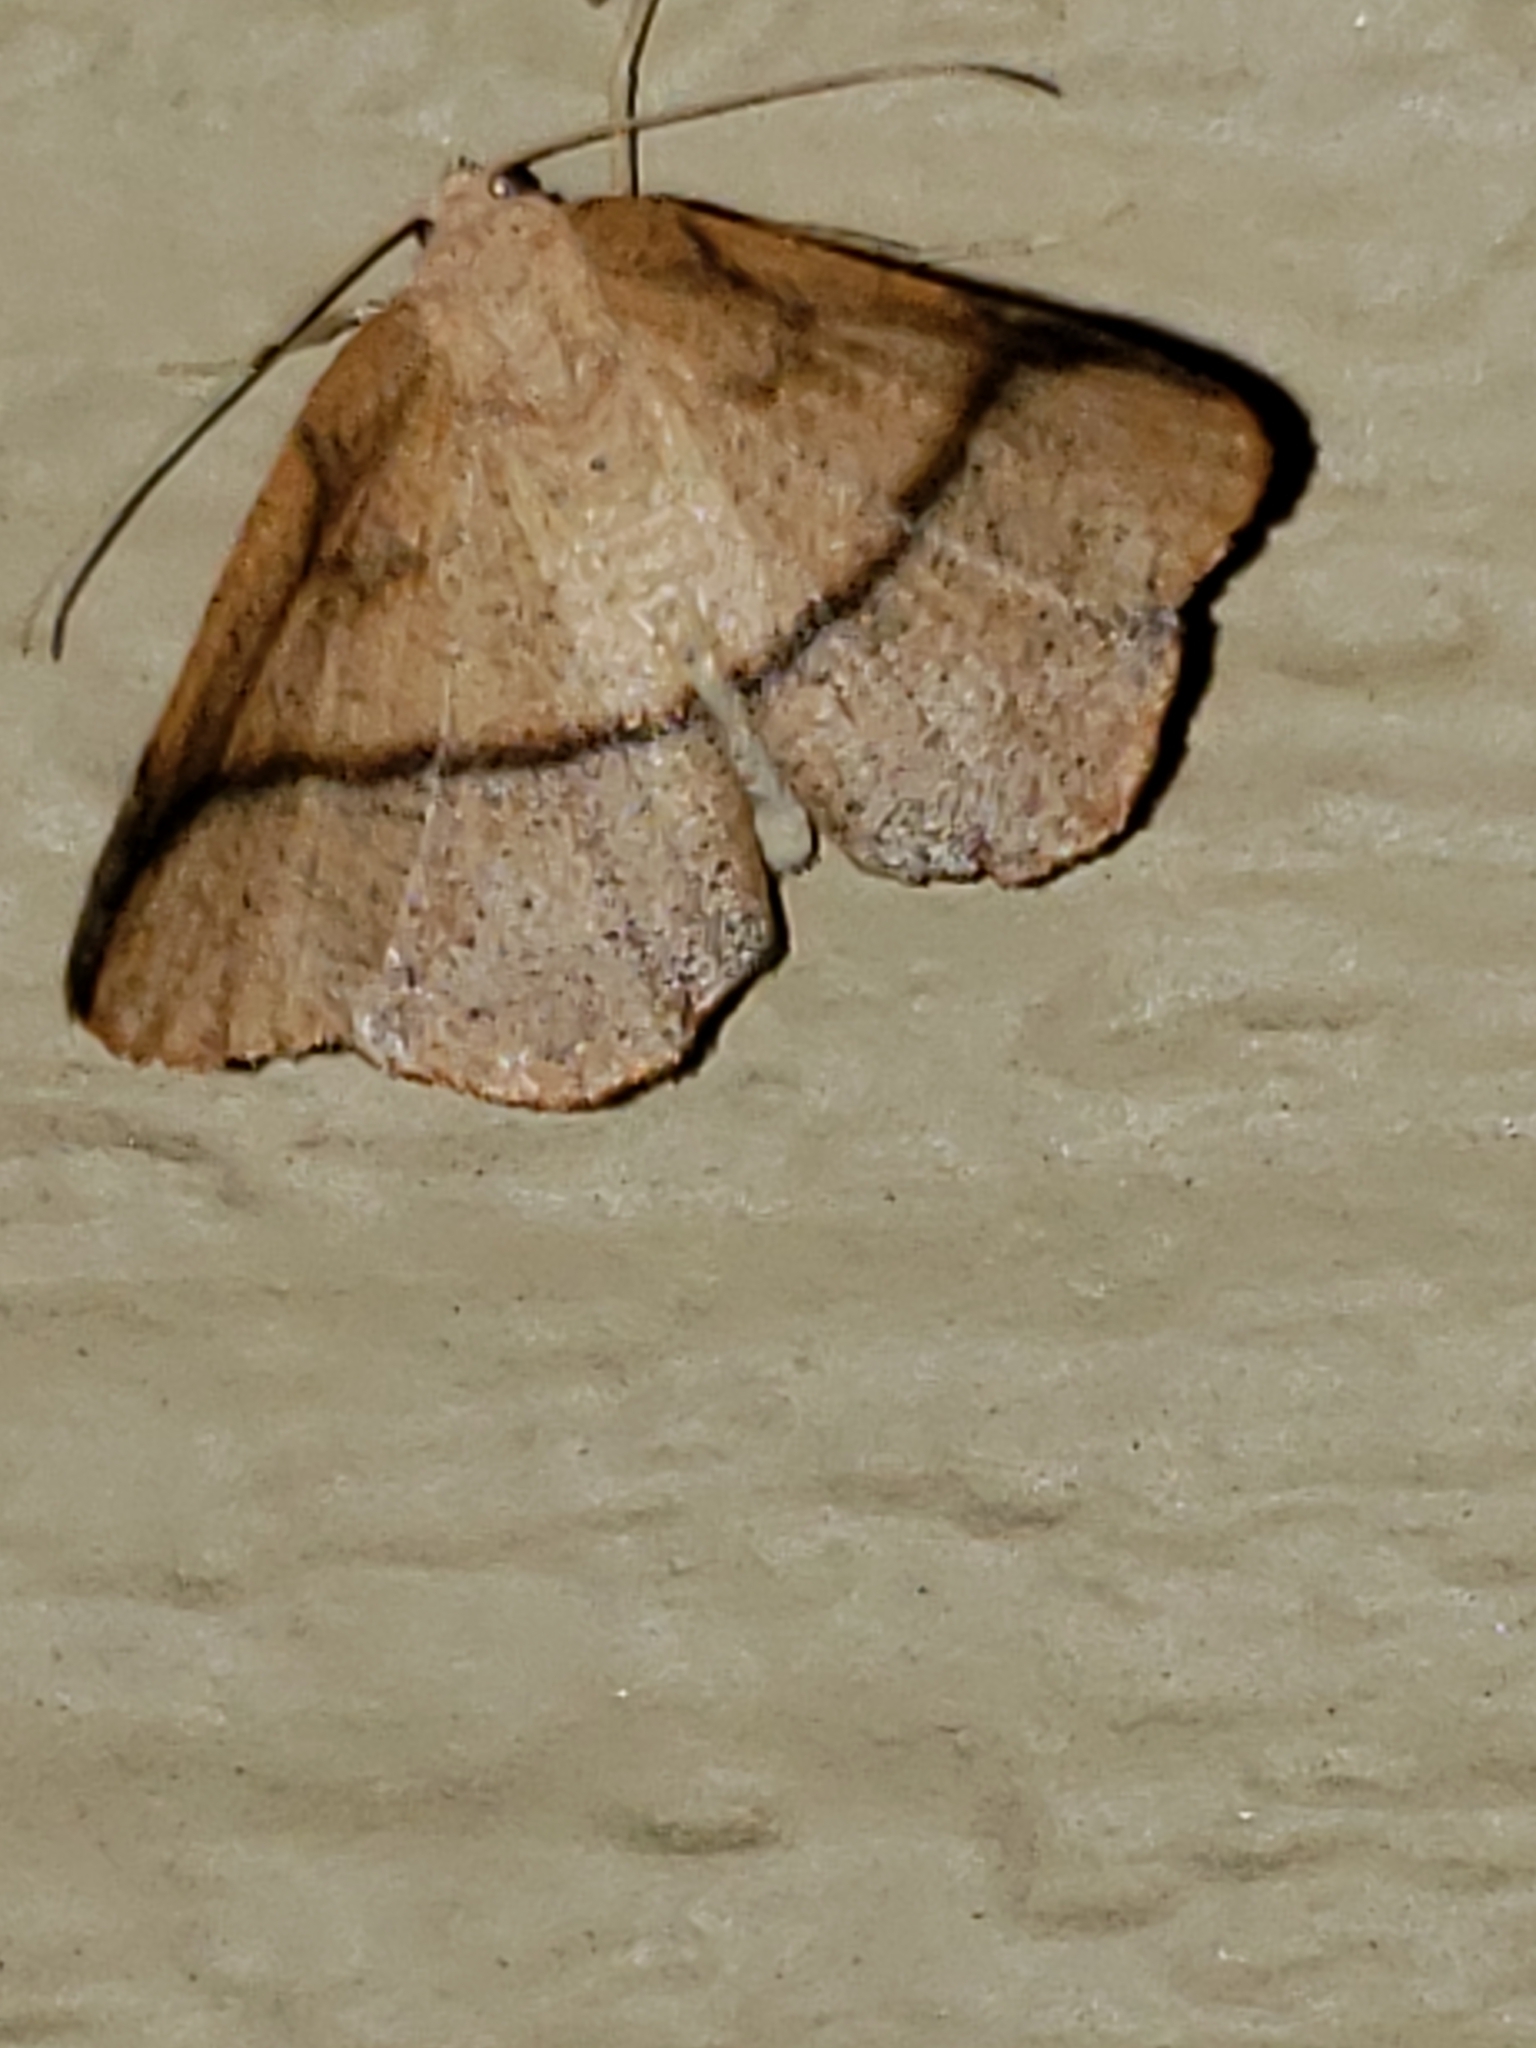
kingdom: Animalia
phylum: Arthropoda
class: Insecta
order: Lepidoptera
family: Geometridae
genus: Patalene
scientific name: Patalene olyzonaria
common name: Juniper geometer moth
